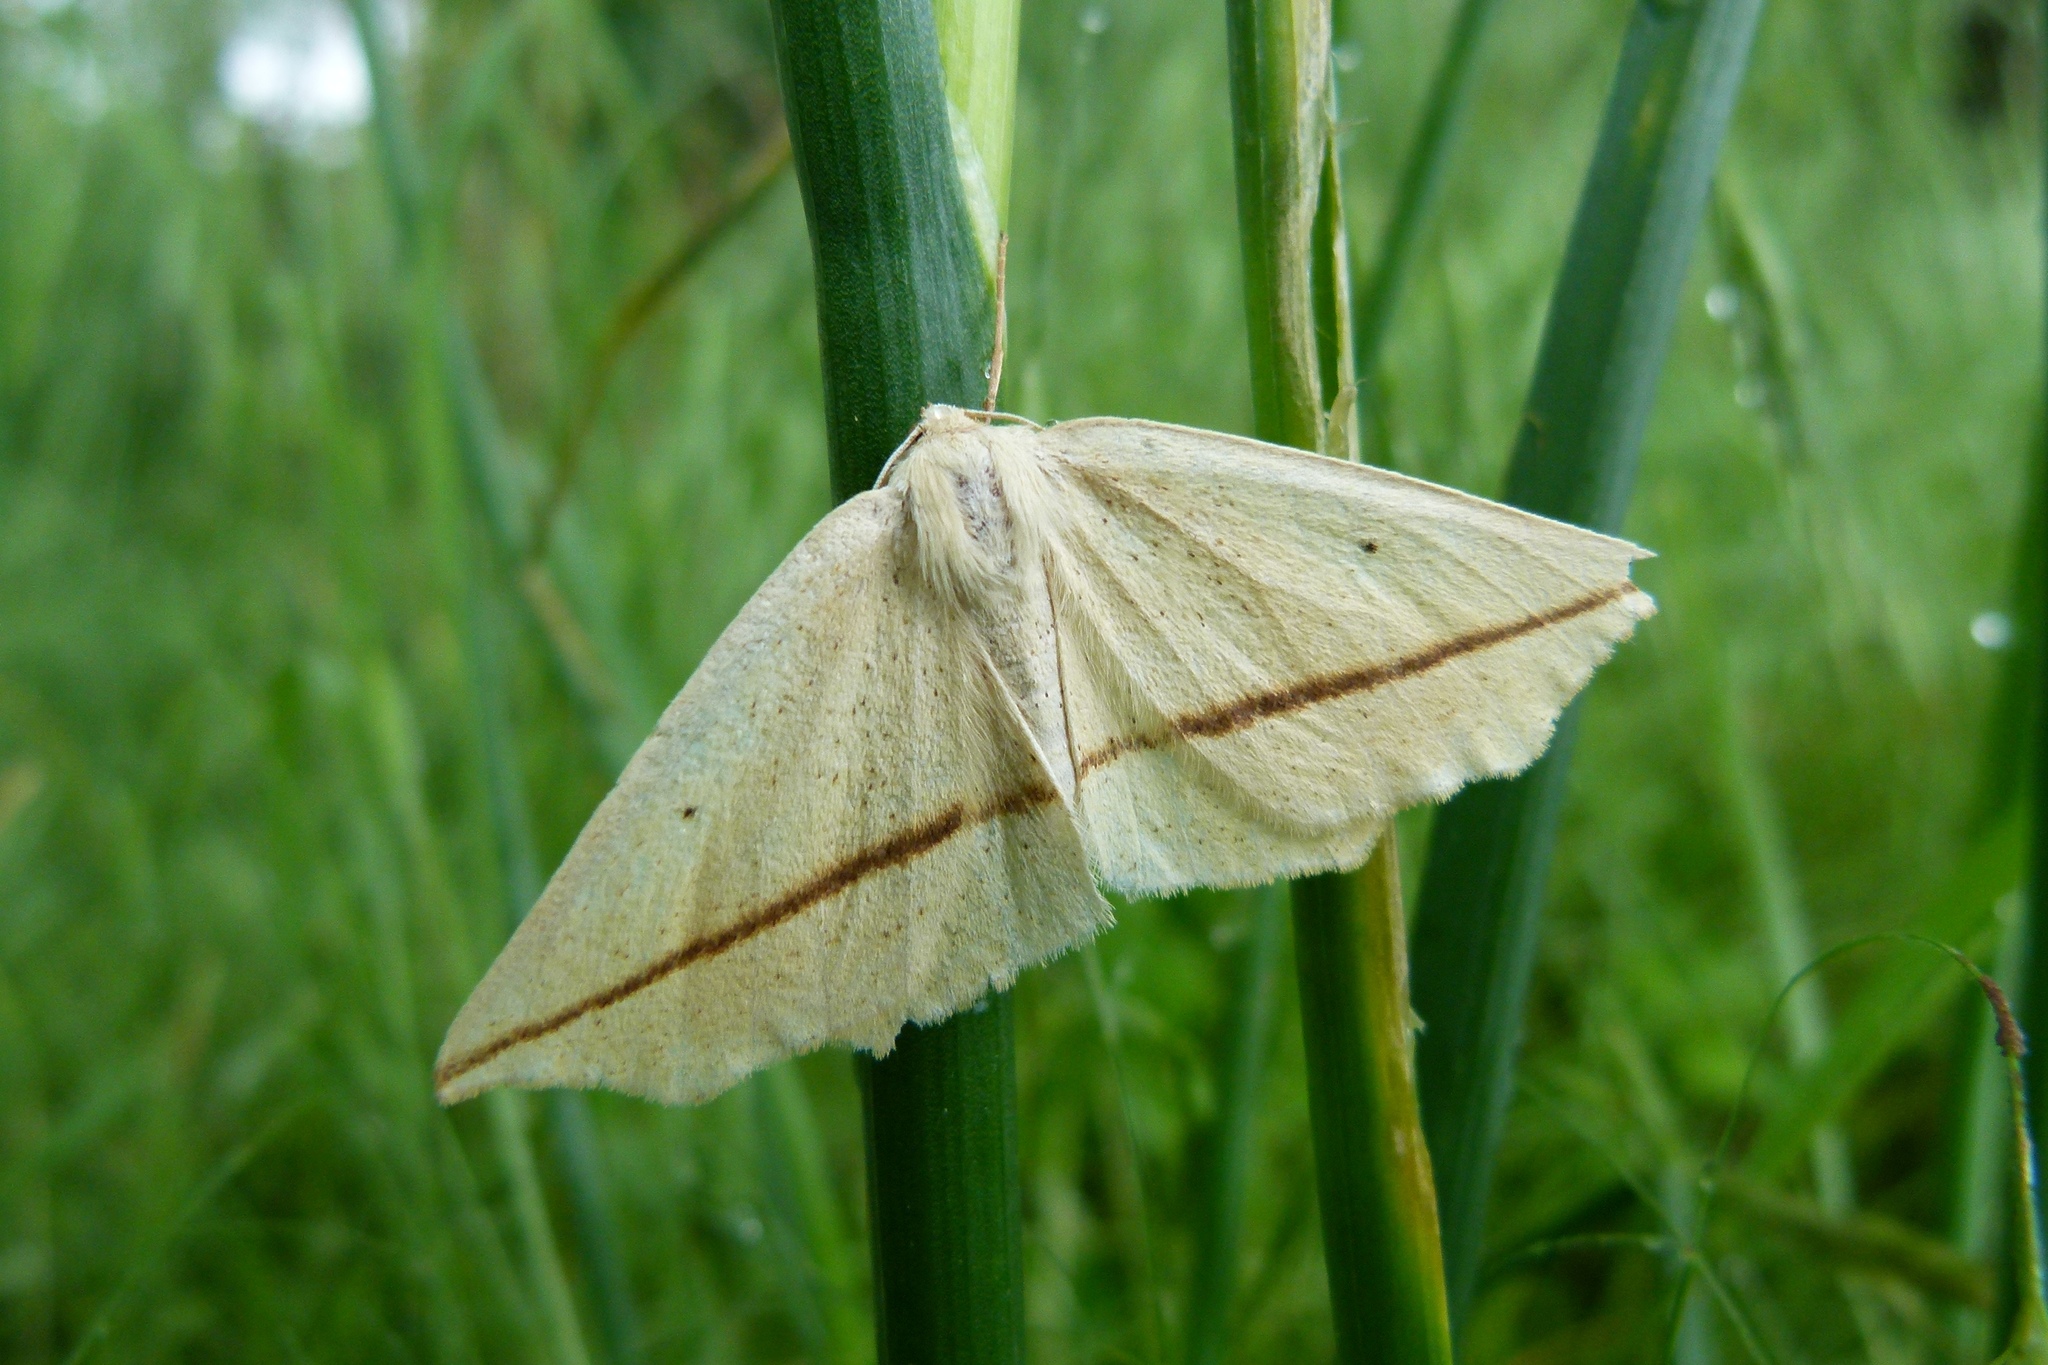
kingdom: Animalia
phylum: Arthropoda
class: Insecta
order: Lepidoptera
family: Geometridae
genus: Tetracis
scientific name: Tetracis crocallata
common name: Yellow slant-line
